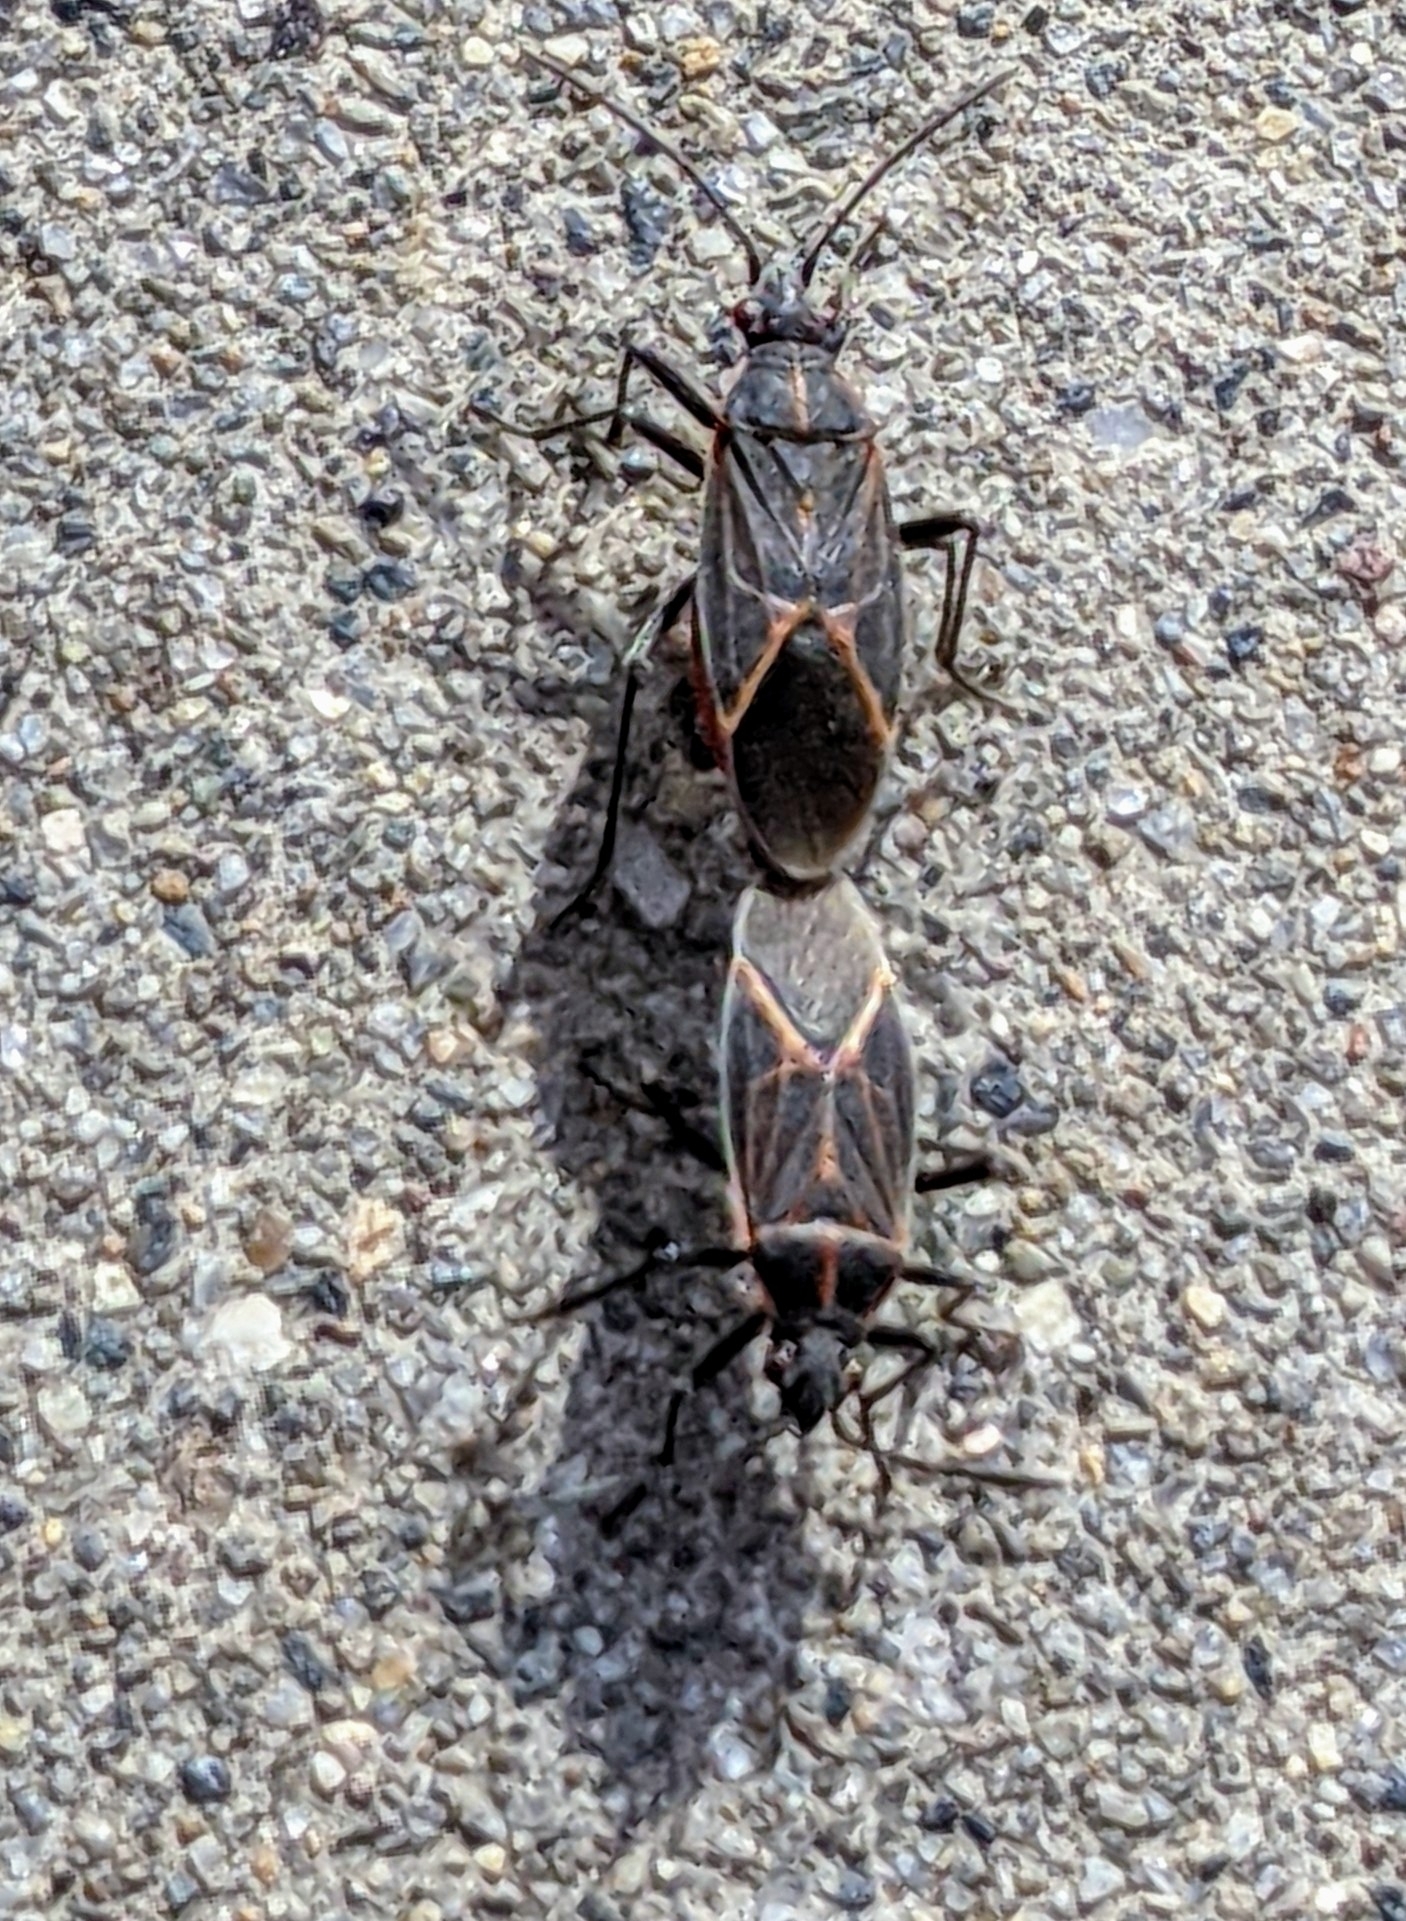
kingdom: Animalia
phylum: Arthropoda
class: Insecta
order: Hemiptera
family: Rhopalidae
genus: Boisea
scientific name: Boisea rubrolineata
